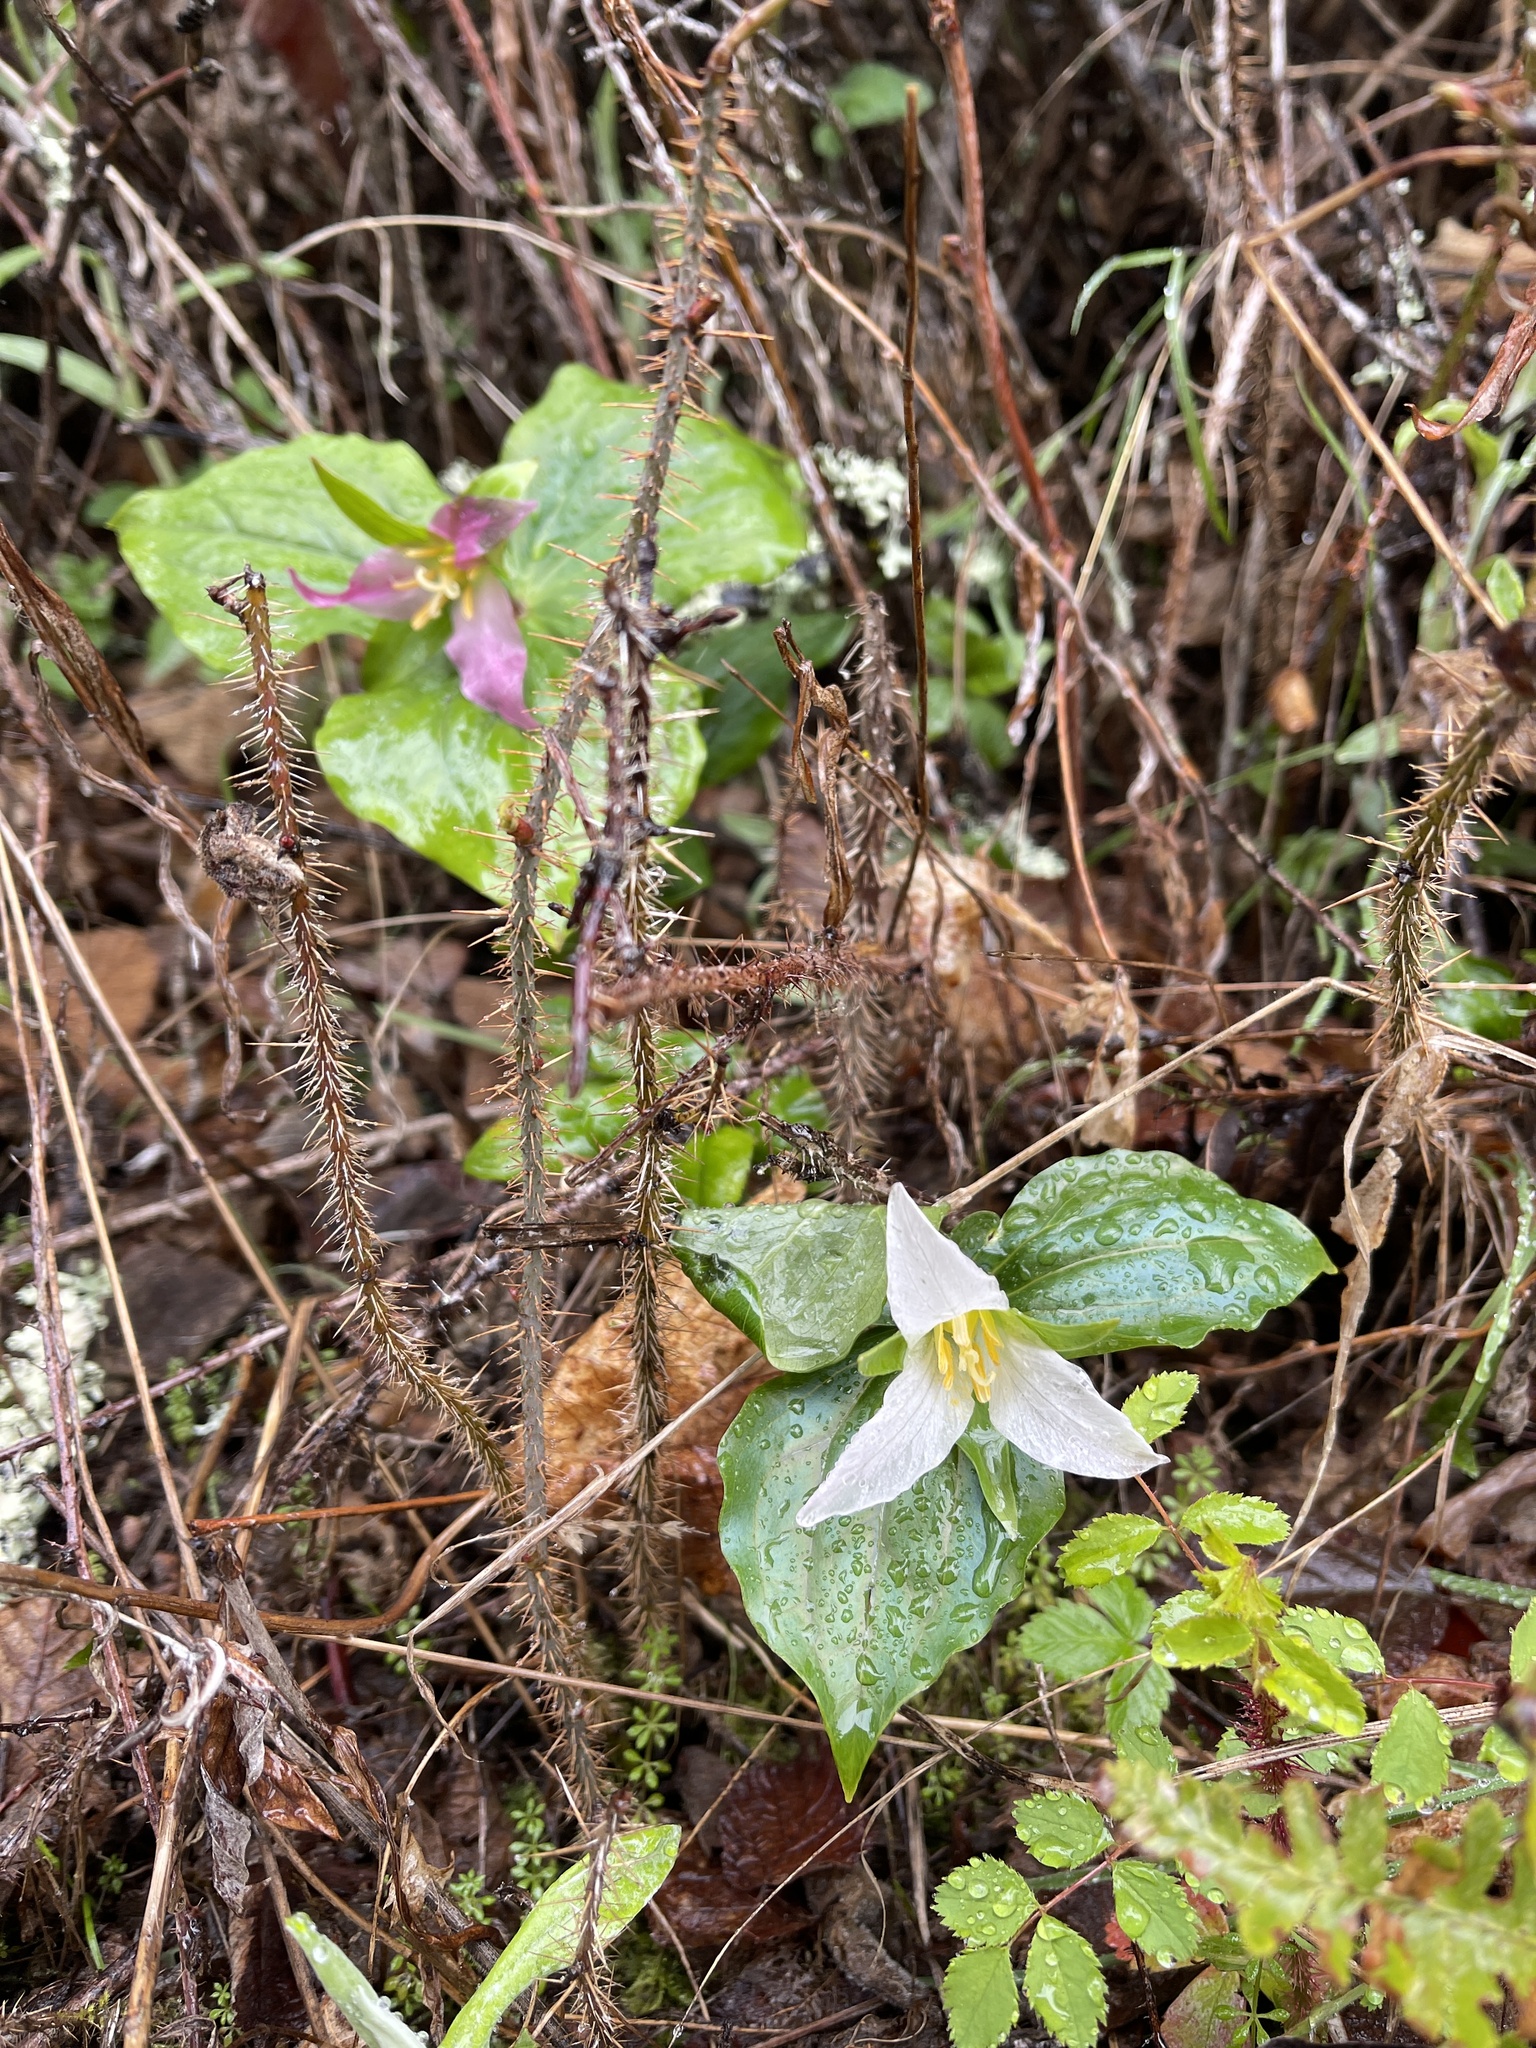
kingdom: Plantae
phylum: Tracheophyta
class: Liliopsida
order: Liliales
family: Melanthiaceae
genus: Trillium
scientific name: Trillium ovatum
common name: Pacific trillium
